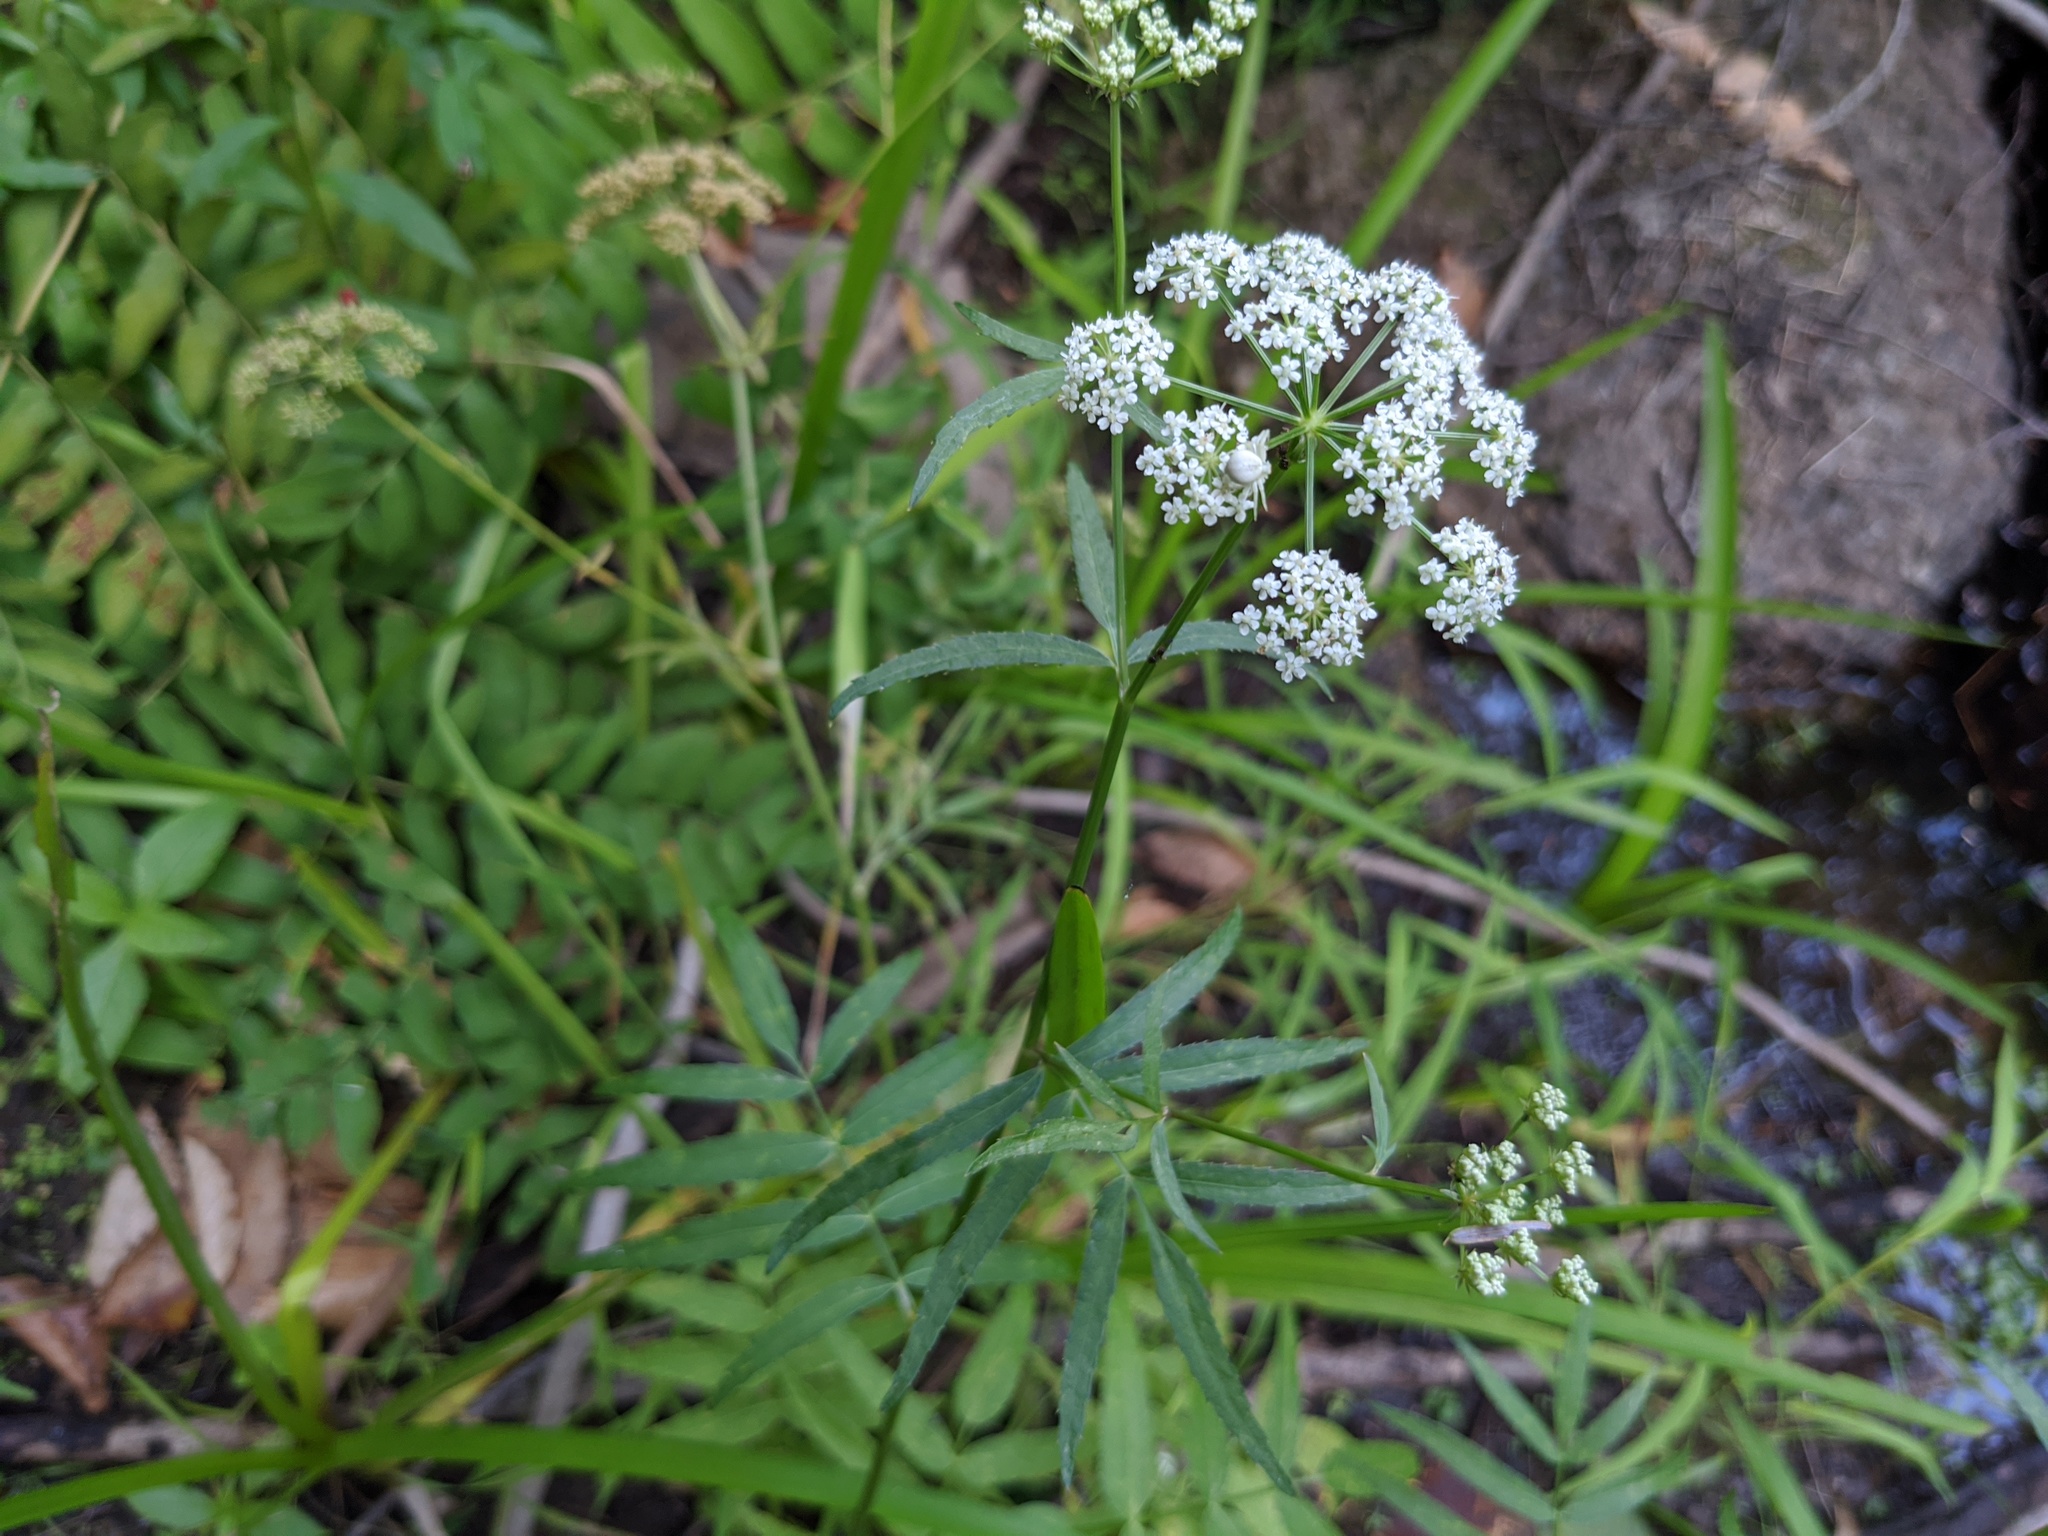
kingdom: Plantae
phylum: Tracheophyta
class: Magnoliopsida
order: Apiales
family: Apiaceae
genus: Sium
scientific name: Sium suave
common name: Hemlock water-parsnip
